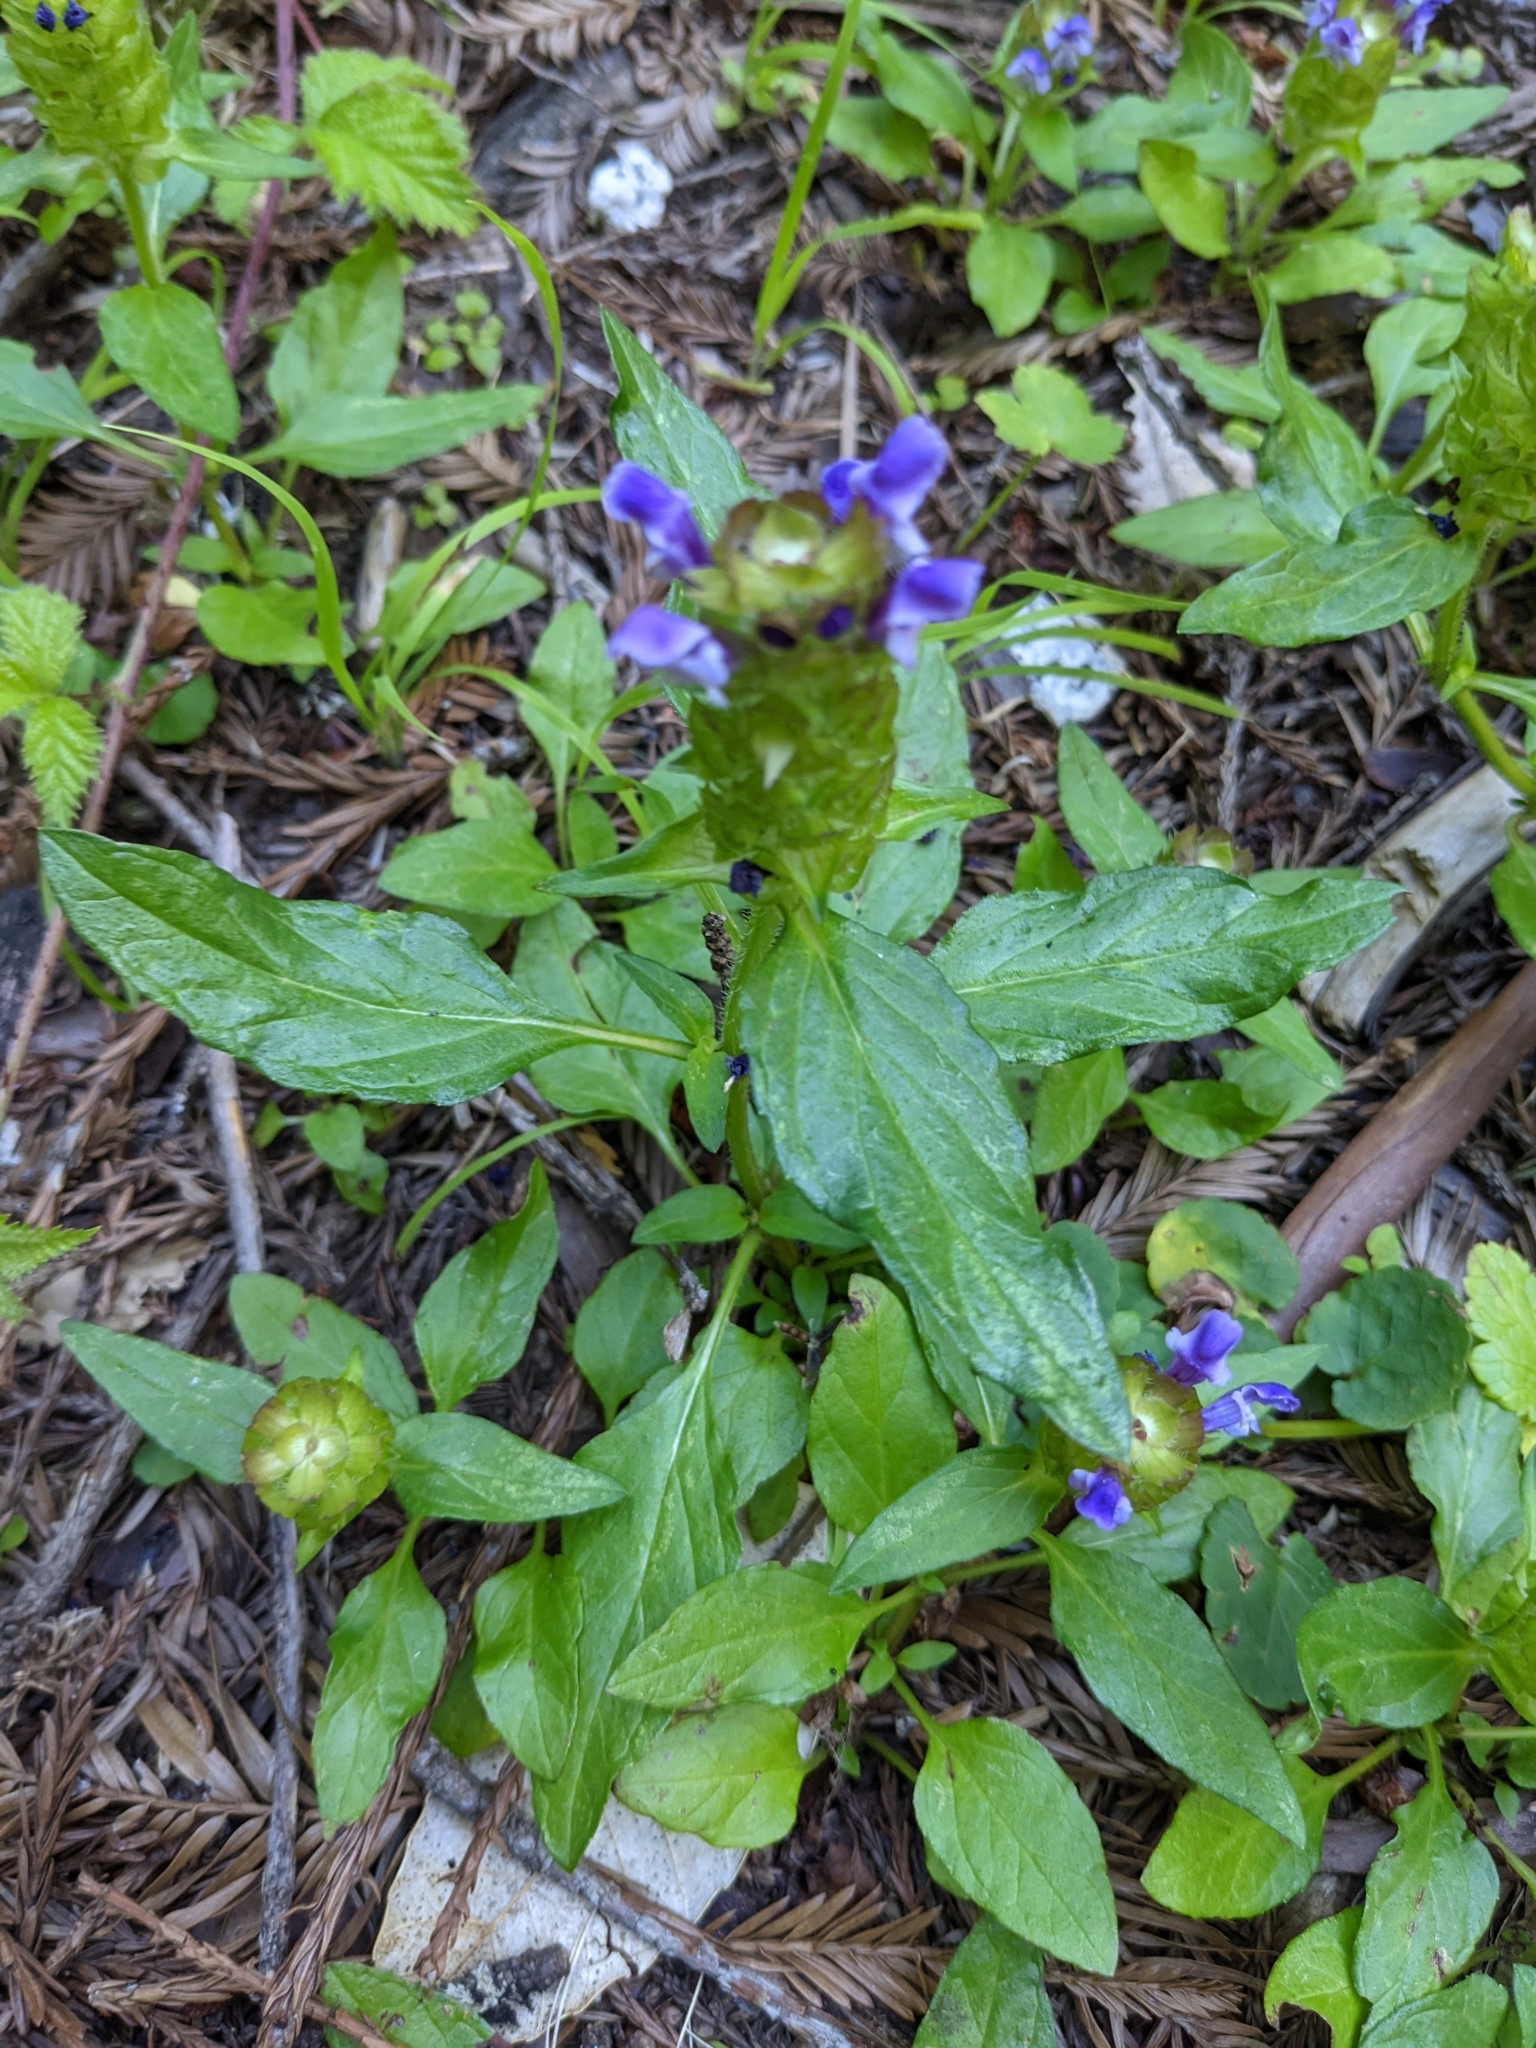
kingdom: Plantae
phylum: Tracheophyta
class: Magnoliopsida
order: Lamiales
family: Lamiaceae
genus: Prunella
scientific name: Prunella vulgaris
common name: Heal-all
